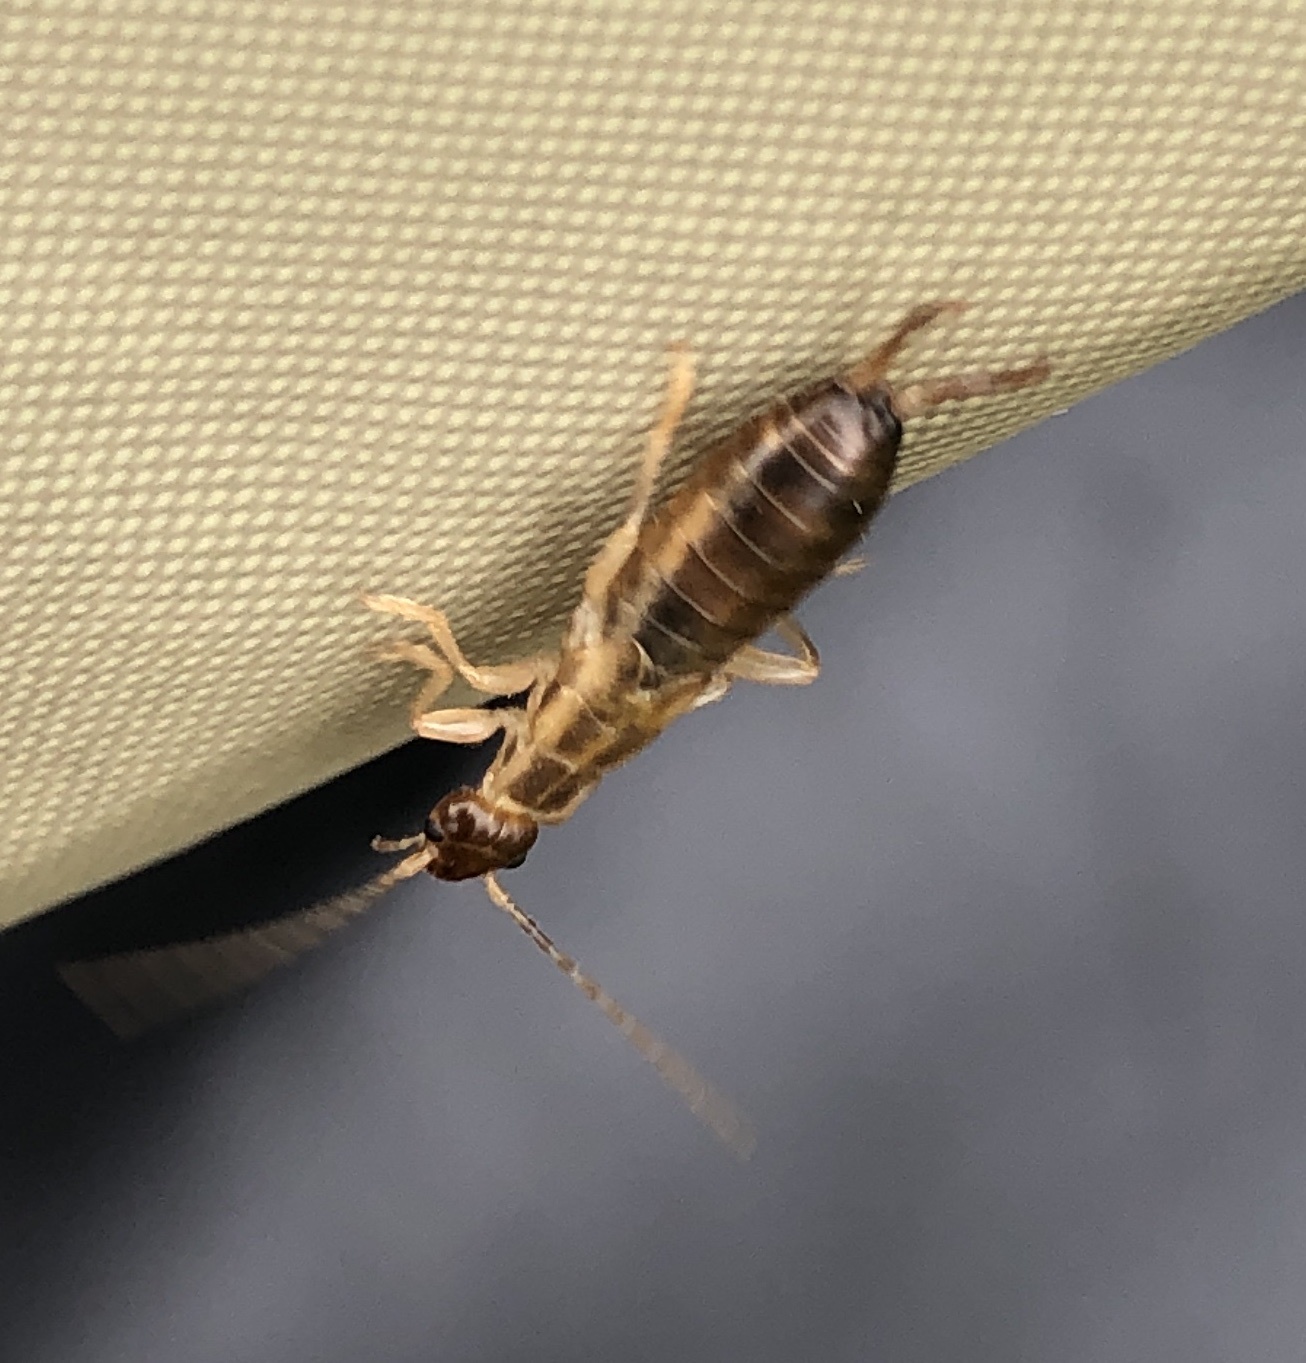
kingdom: Animalia
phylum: Arthropoda
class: Insecta
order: Dermaptera
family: Forficulidae
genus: Forficula
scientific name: Forficula
